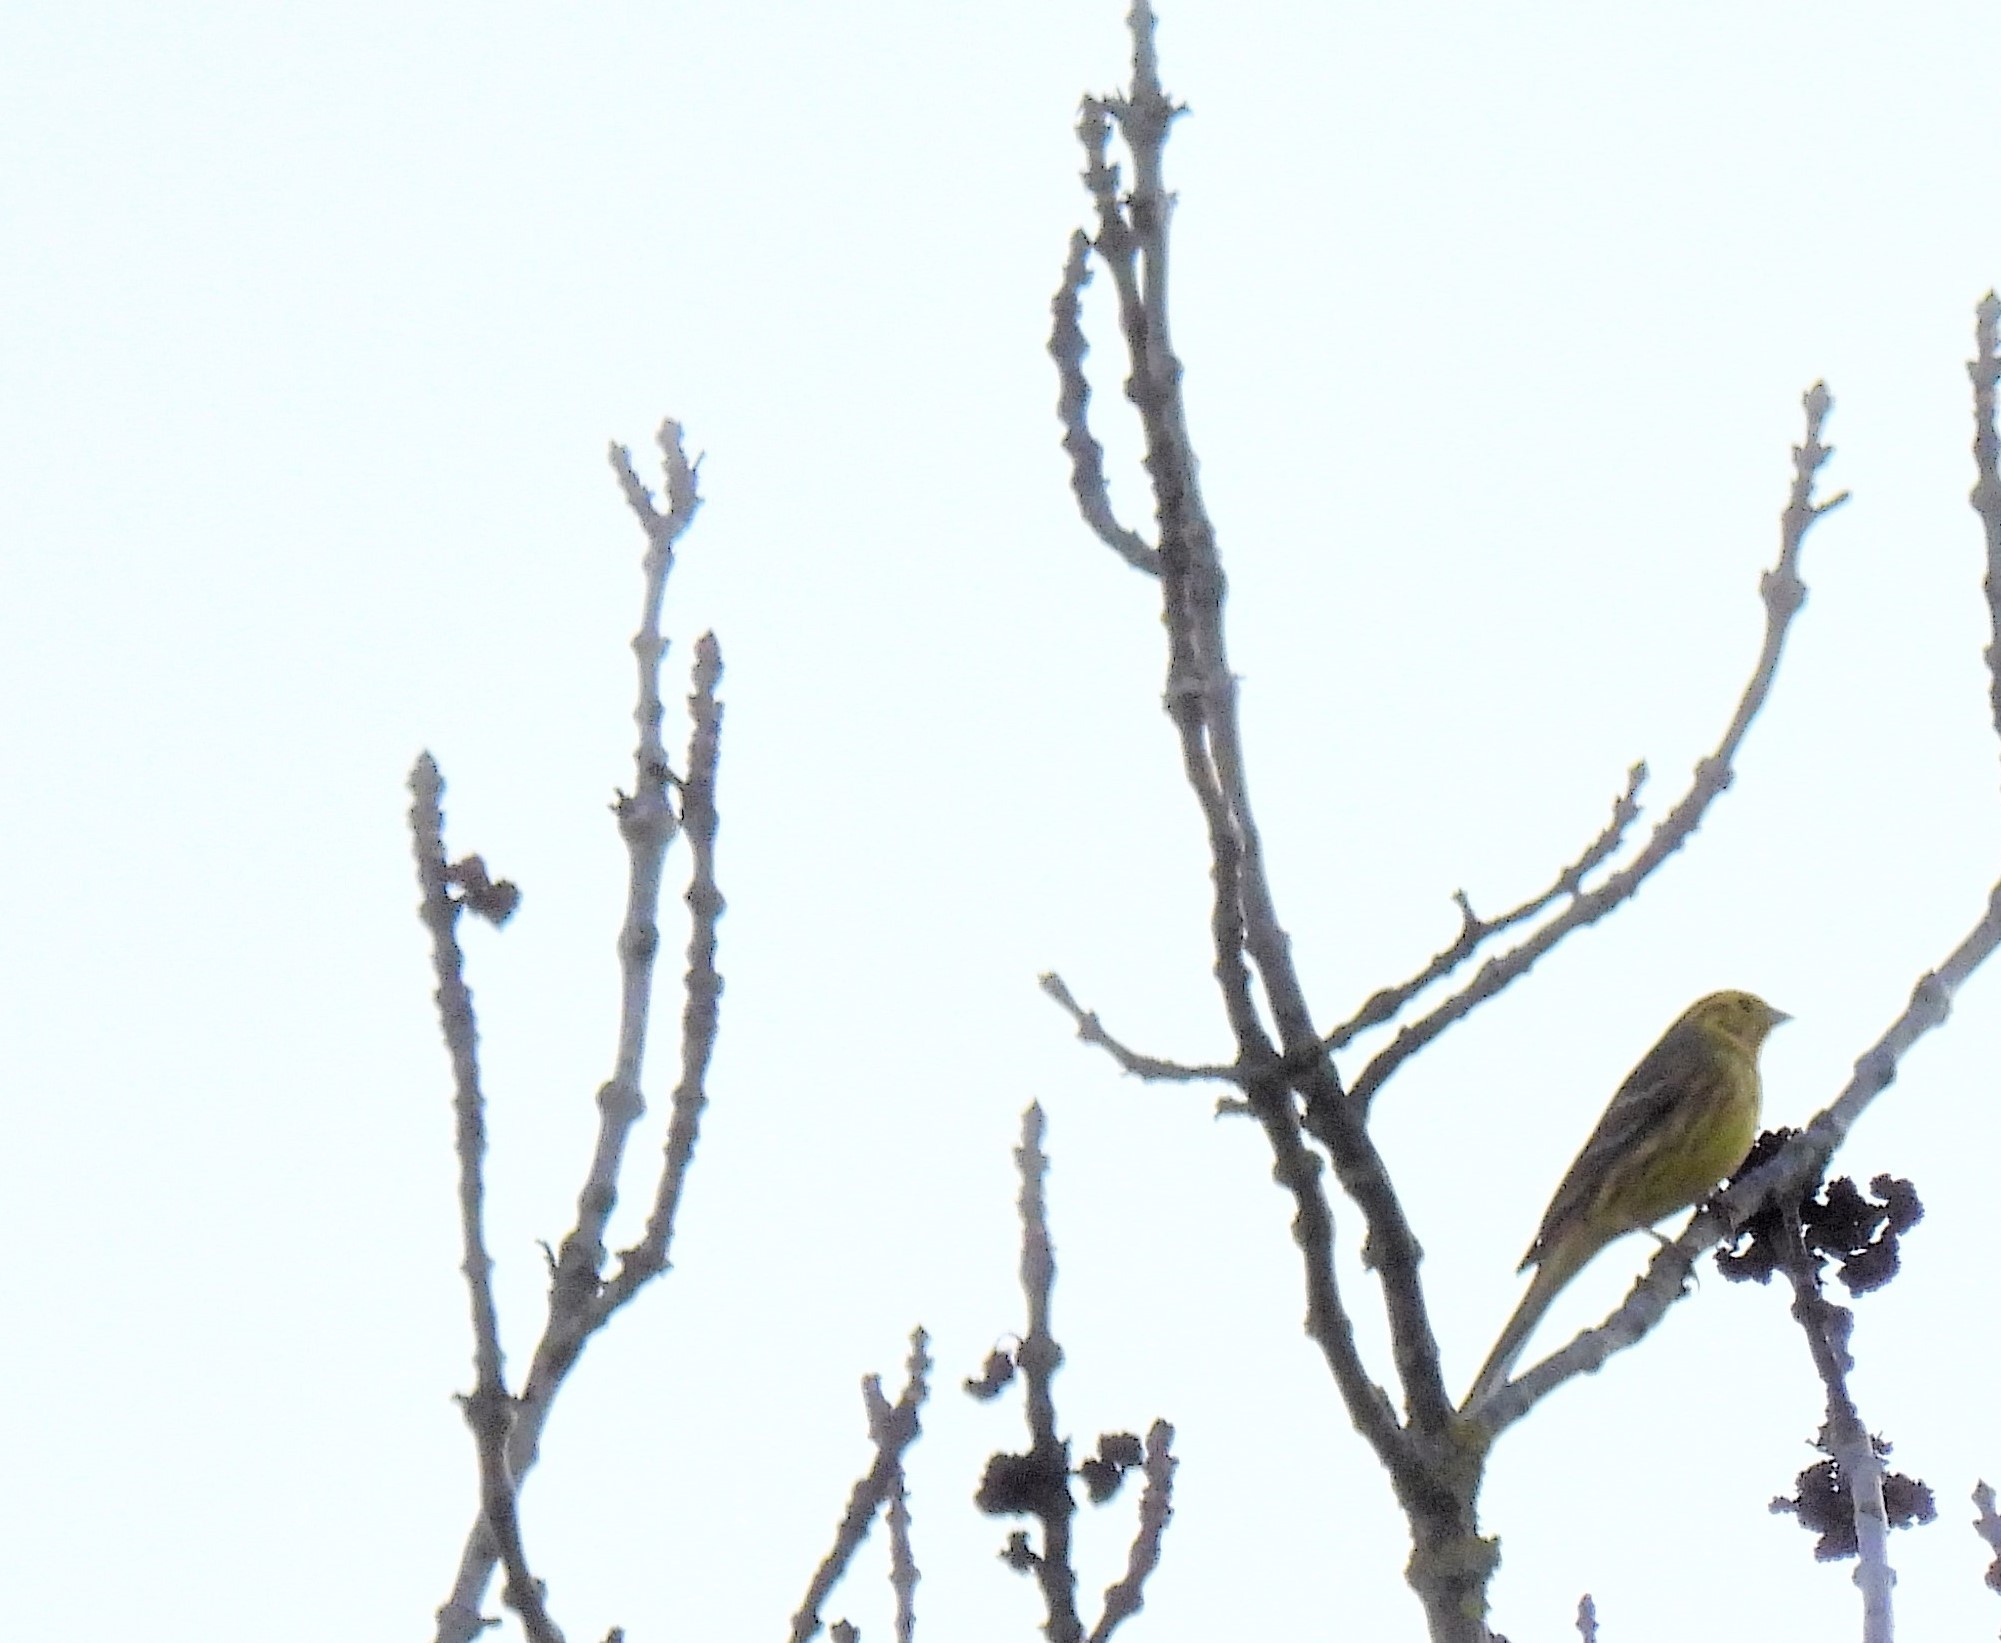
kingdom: Animalia
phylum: Chordata
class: Aves
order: Passeriformes
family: Emberizidae
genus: Emberiza
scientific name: Emberiza citrinella
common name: Yellowhammer
